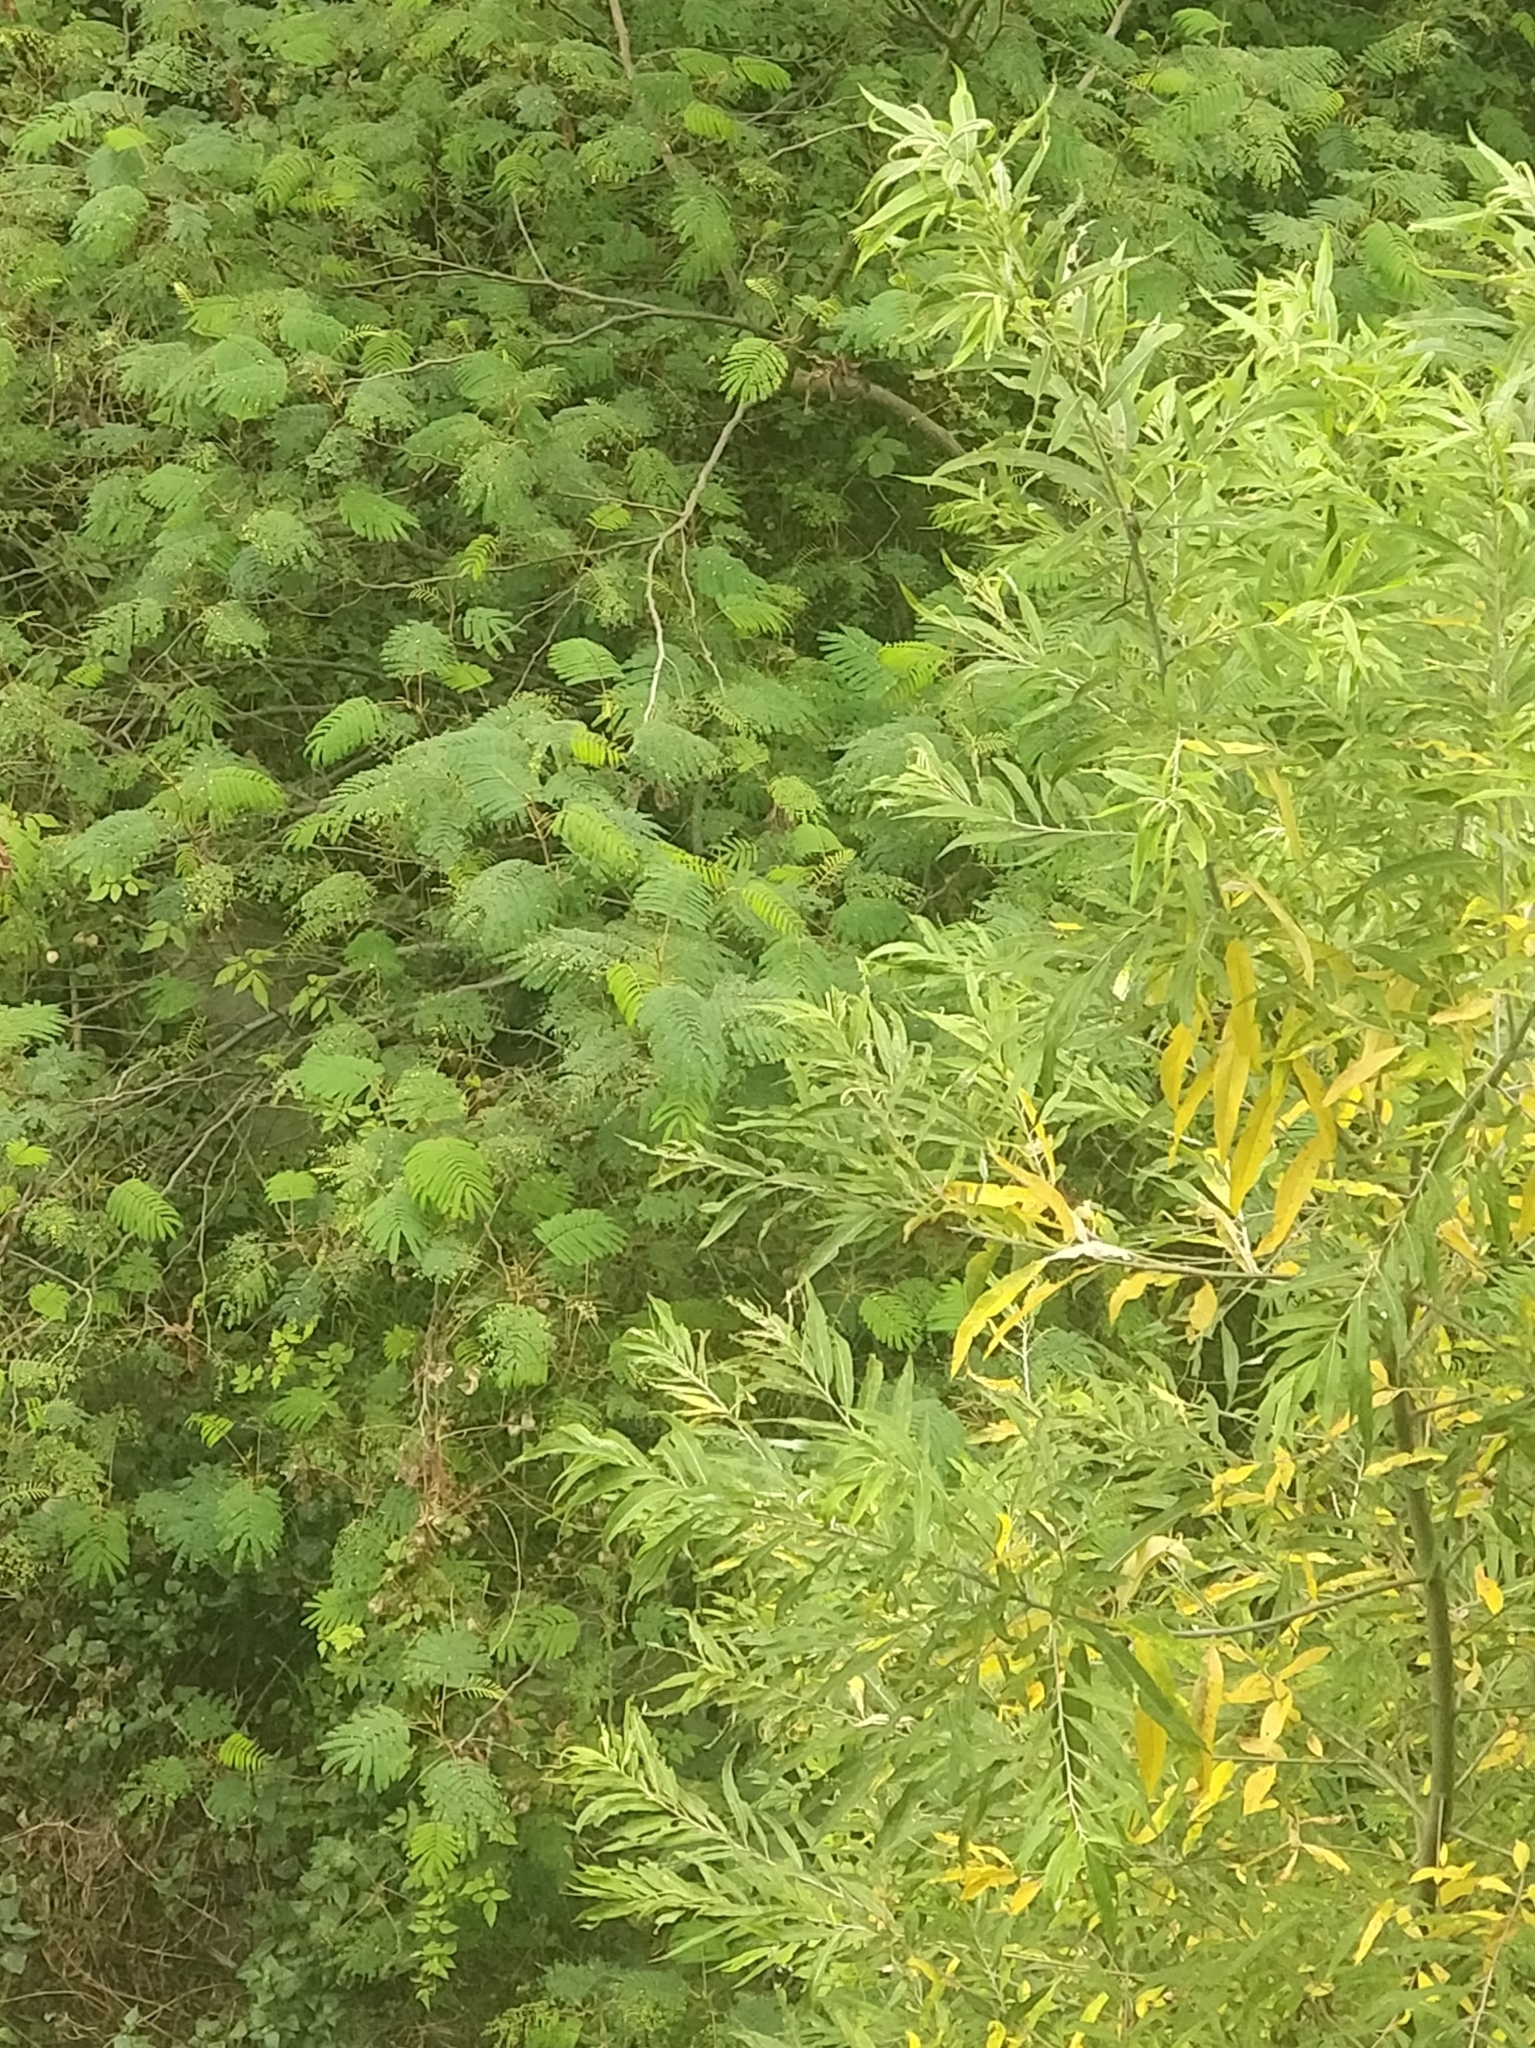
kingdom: Plantae
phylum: Tracheophyta
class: Magnoliopsida
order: Malpighiales
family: Salicaceae
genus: Salix
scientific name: Salix canariensis
